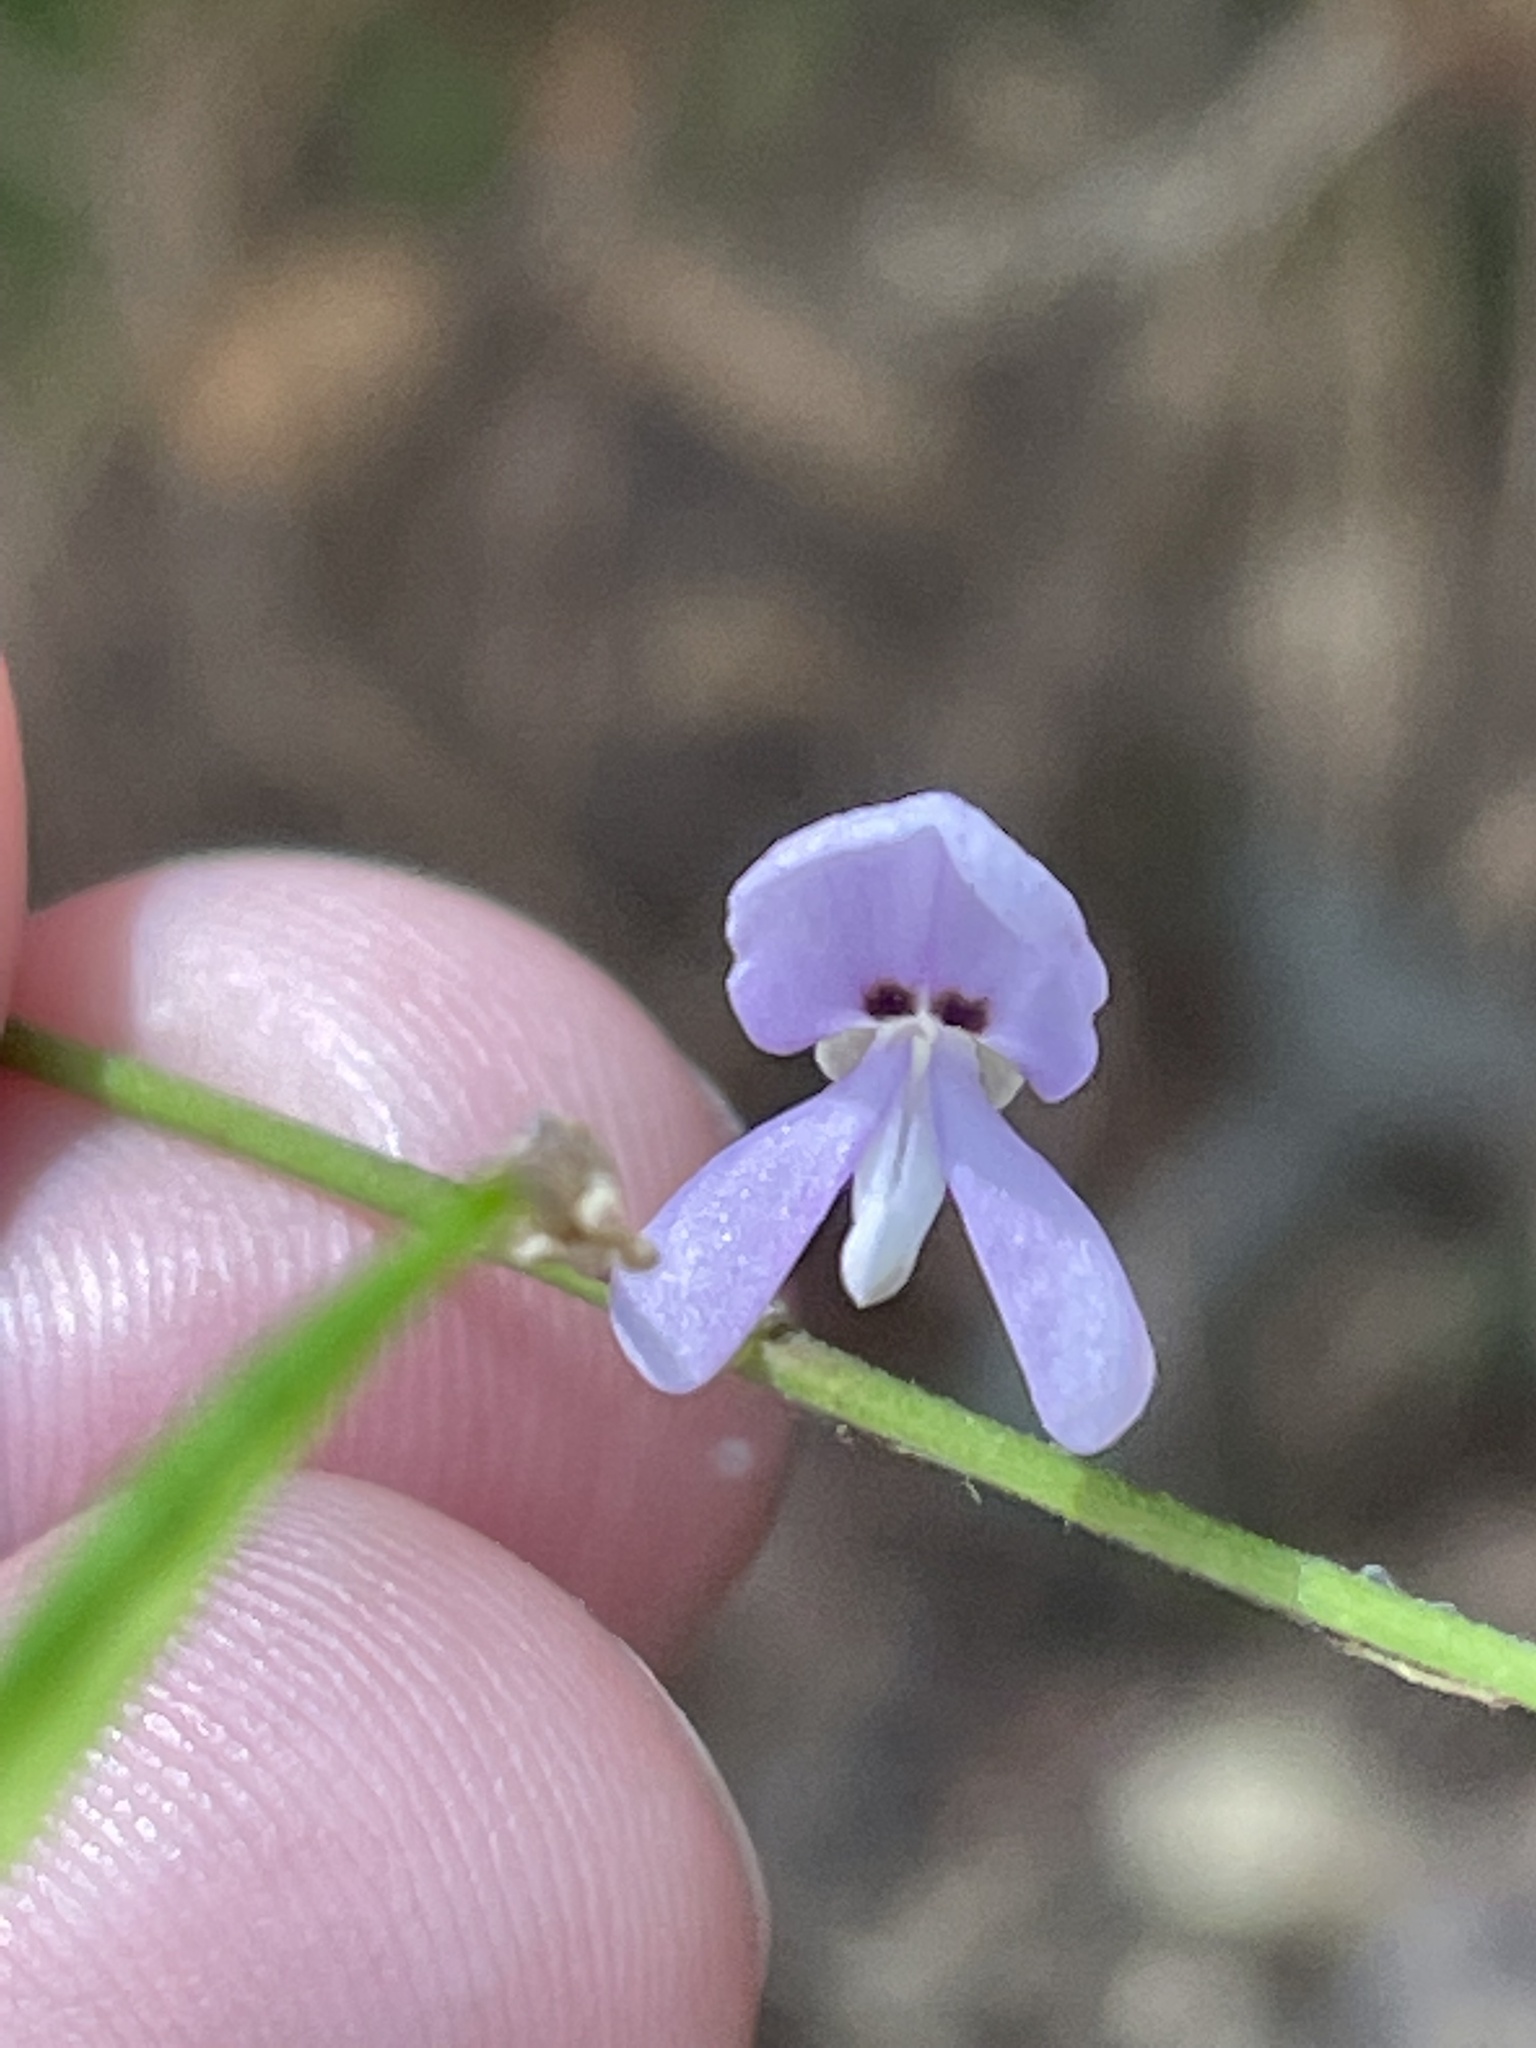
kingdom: Plantae
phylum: Tracheophyta
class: Magnoliopsida
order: Fabales
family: Fabaceae
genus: Hylodesmum
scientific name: Hylodesmum nudiflorum
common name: Bare-stemmed tick-trefoil
